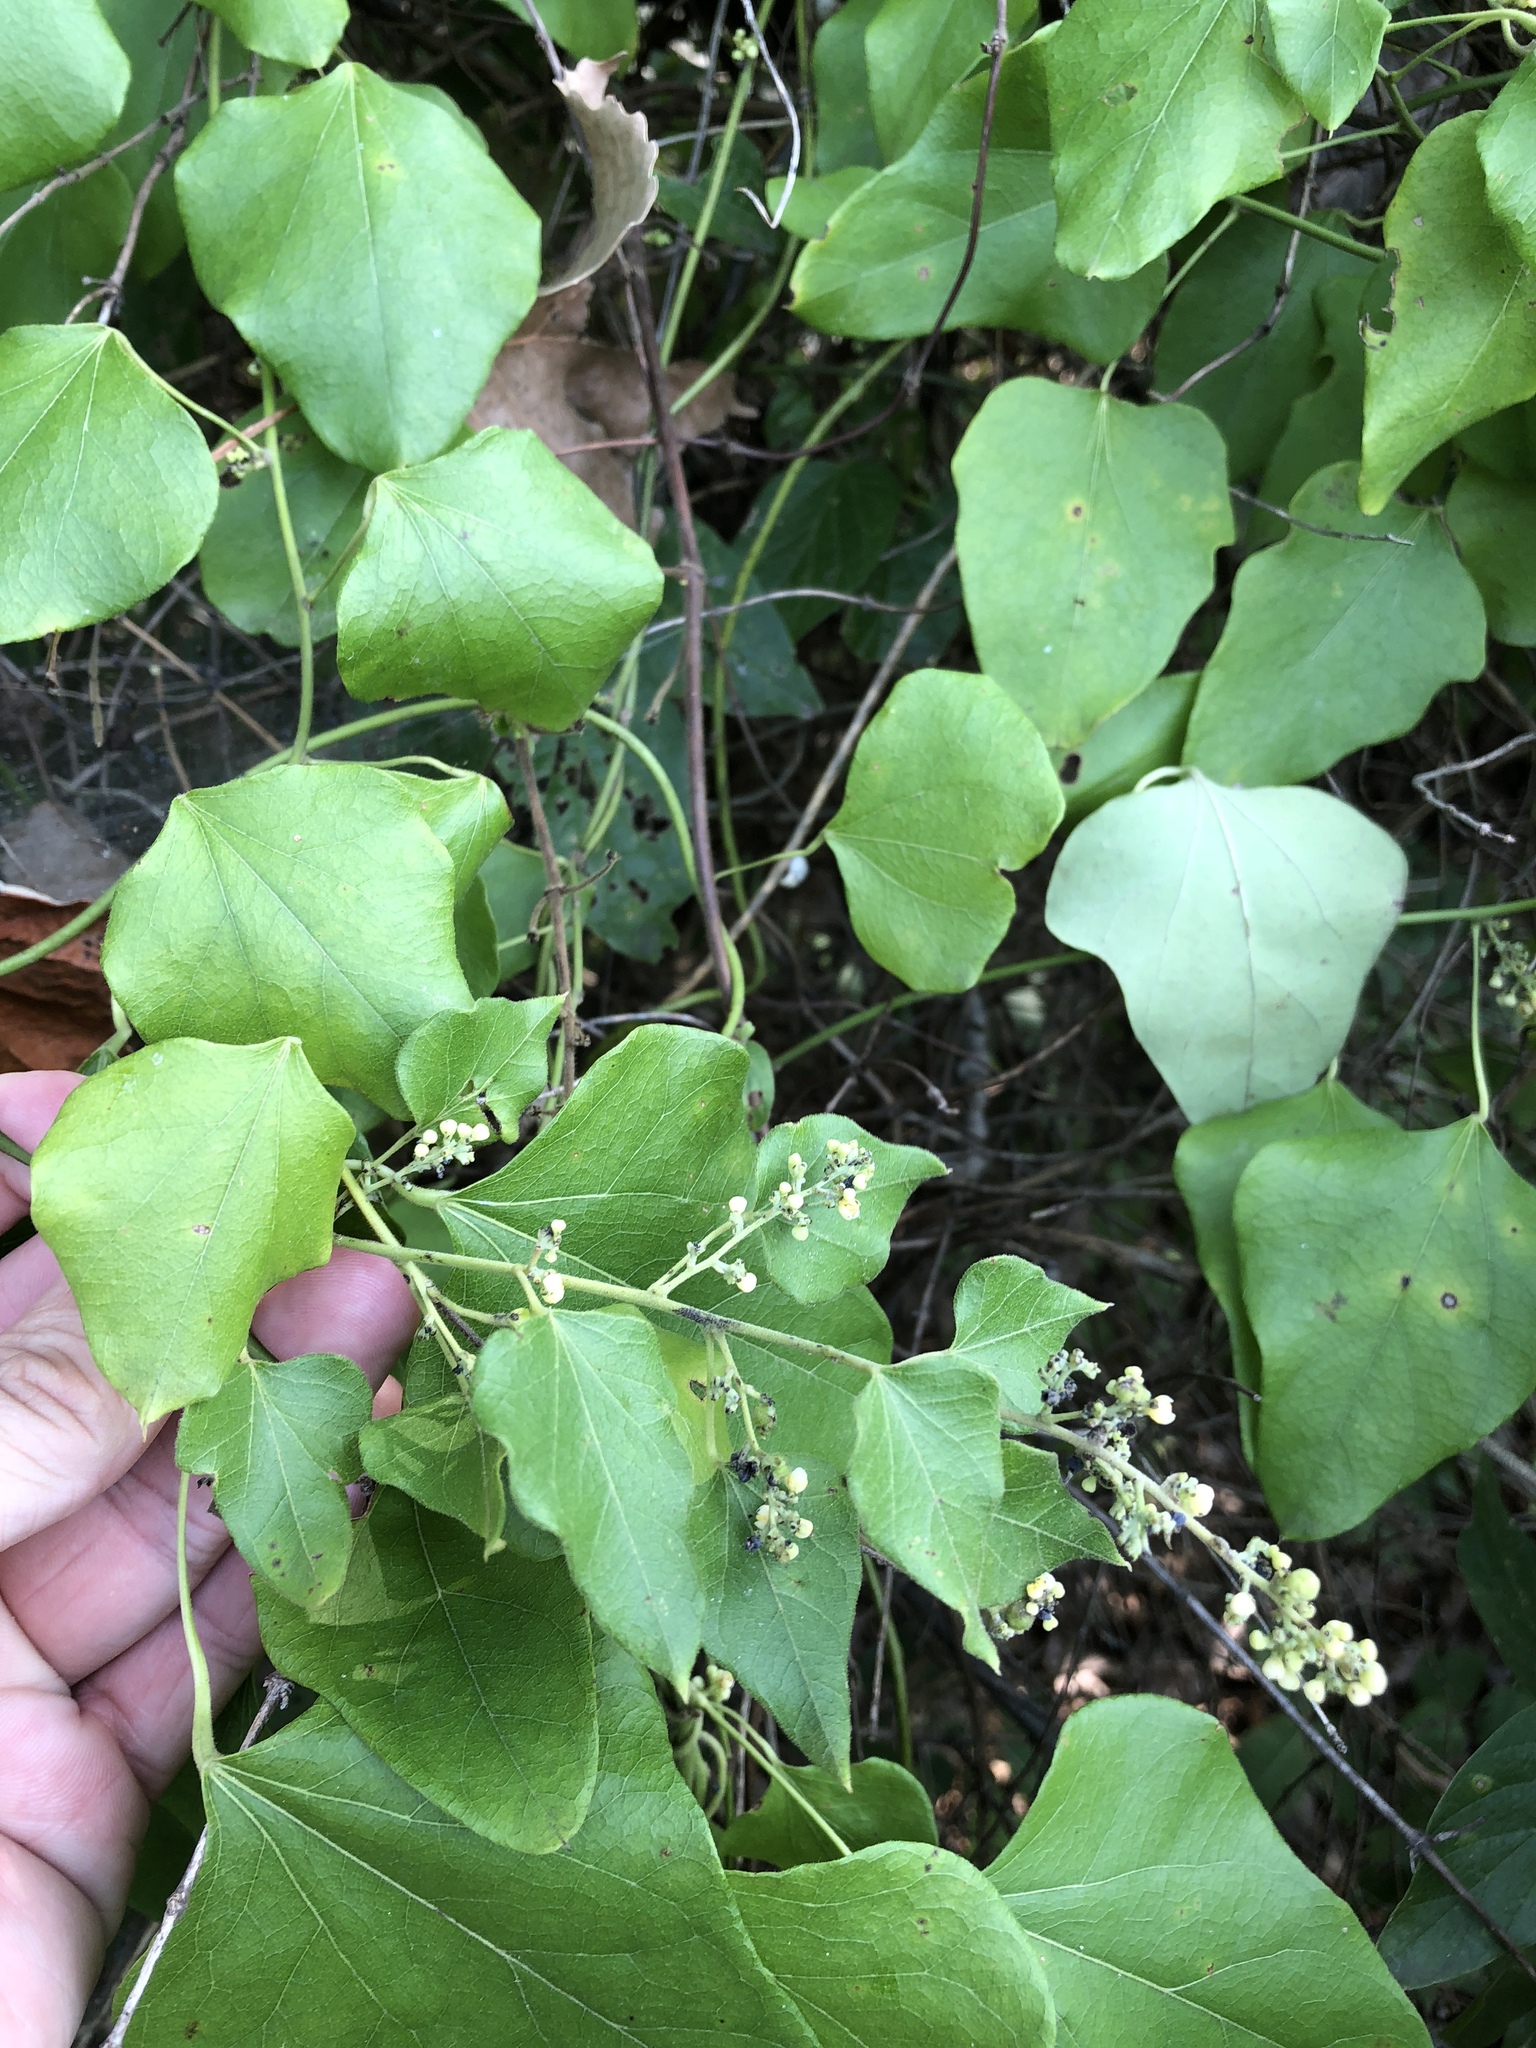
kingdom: Plantae
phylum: Tracheophyta
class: Magnoliopsida
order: Ranunculales
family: Menispermaceae
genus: Cocculus
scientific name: Cocculus carolinus
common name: Carolina moonseed
